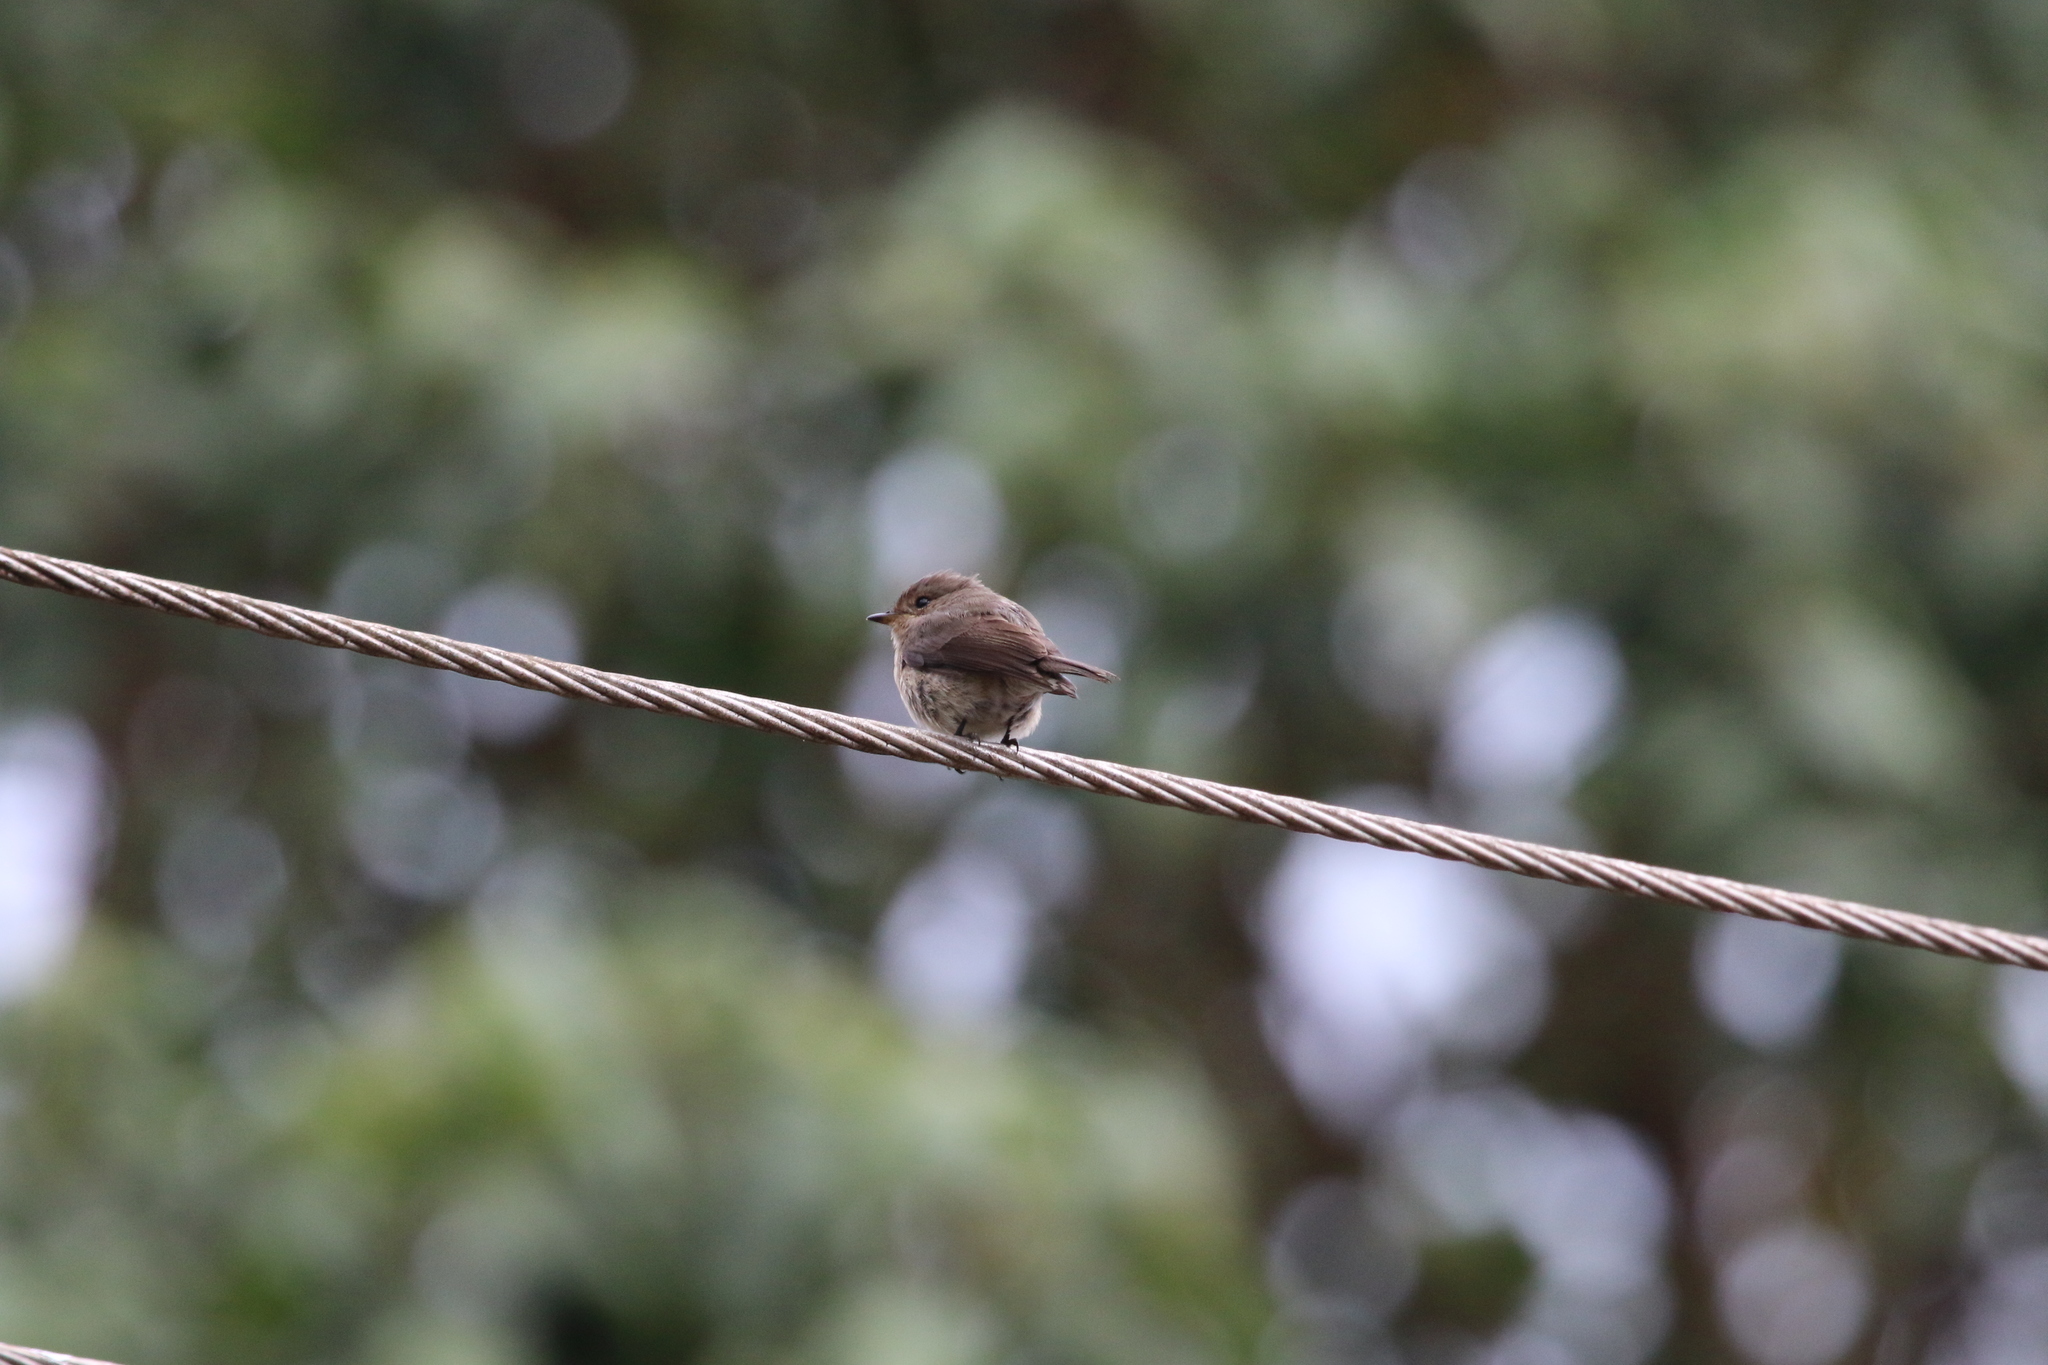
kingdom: Animalia
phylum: Chordata
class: Aves
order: Passeriformes
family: Muscicapidae
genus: Muscicapa
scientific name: Muscicapa adusta
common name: African dusky flycatcher
